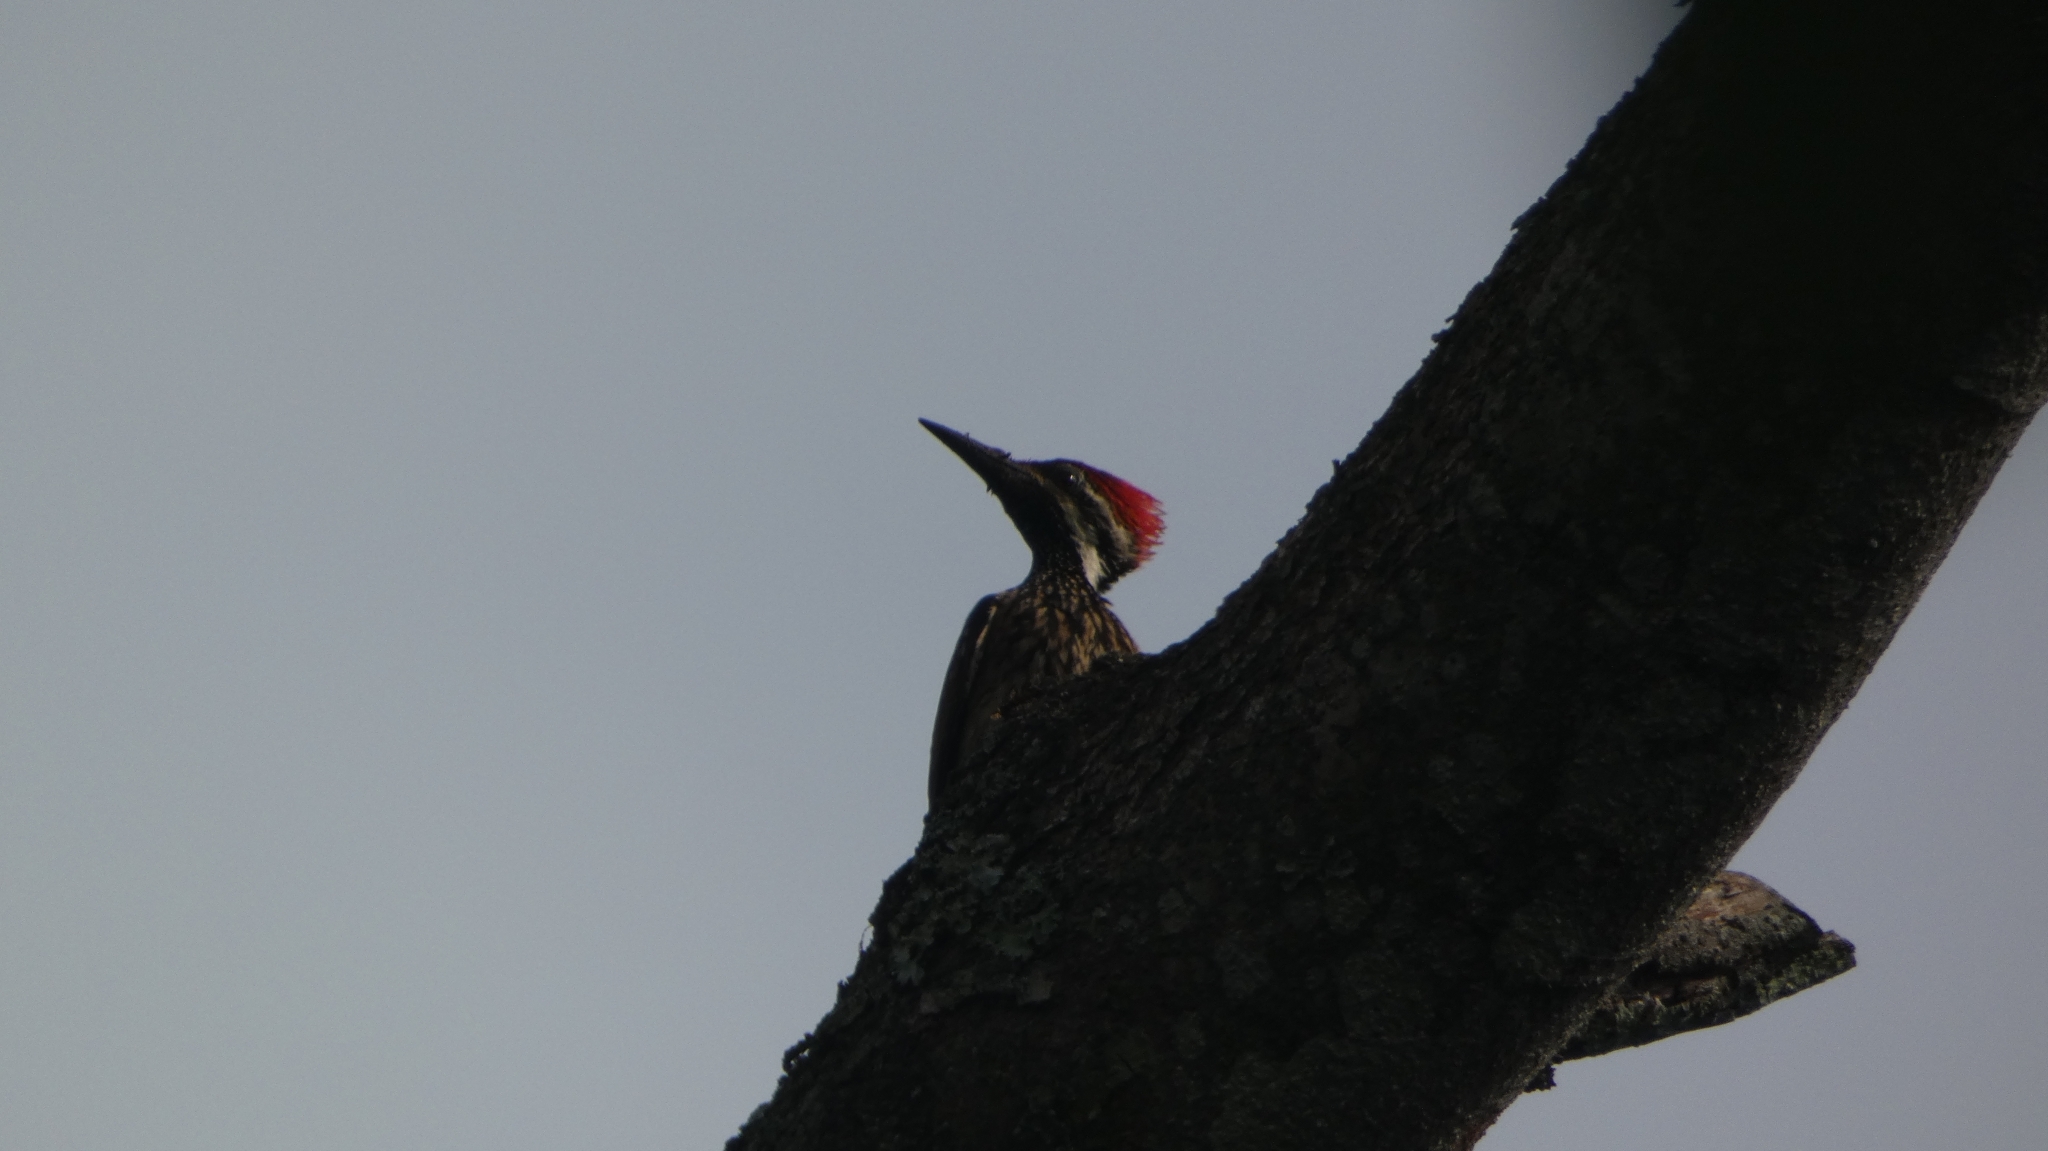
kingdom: Animalia
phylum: Chordata
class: Aves
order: Piciformes
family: Picidae
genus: Dinopium
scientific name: Dinopium benghalense
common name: Black-rumped flameback
